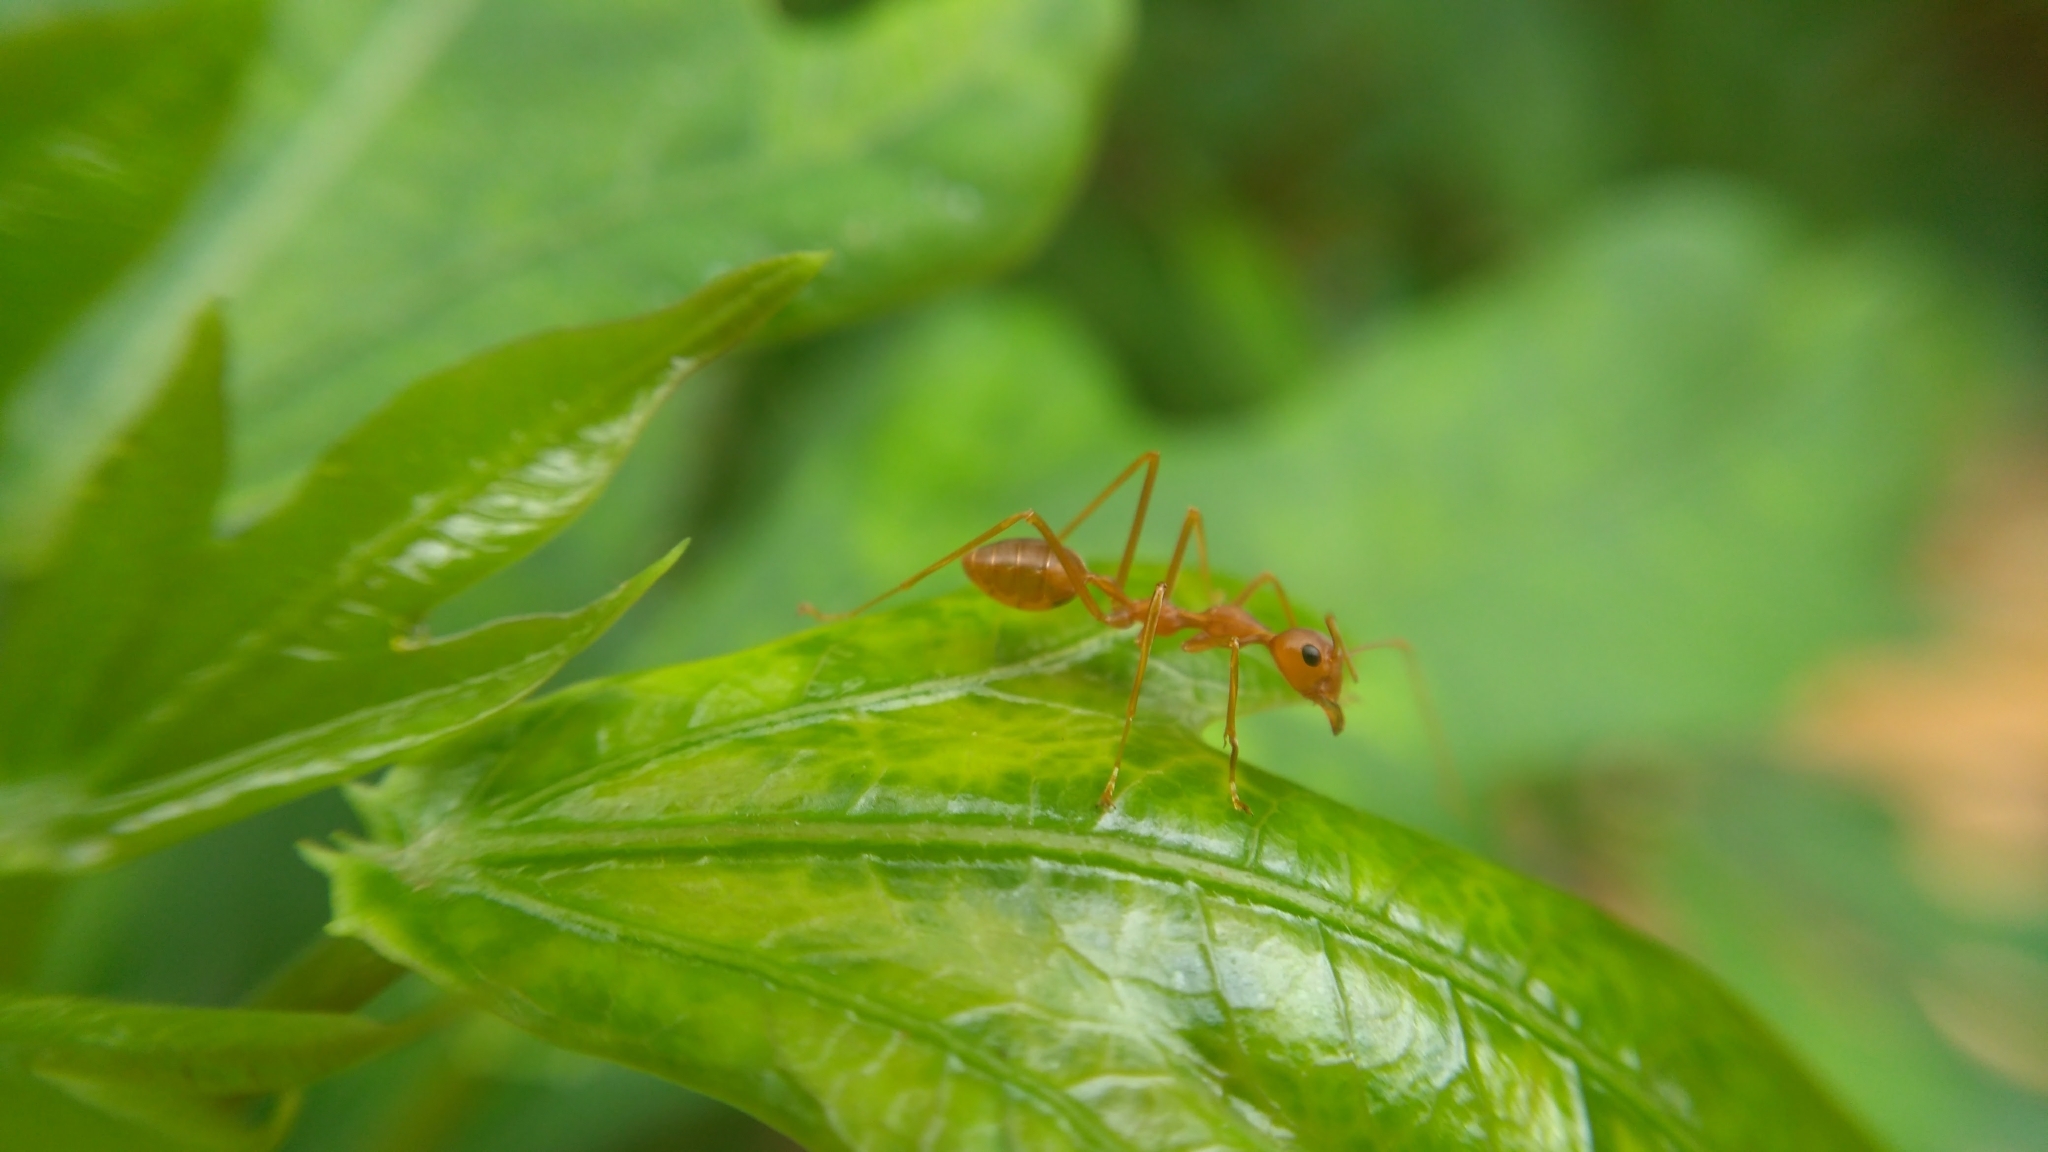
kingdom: Animalia
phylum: Arthropoda
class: Insecta
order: Hymenoptera
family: Formicidae
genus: Oecophylla
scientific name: Oecophylla smaragdina
